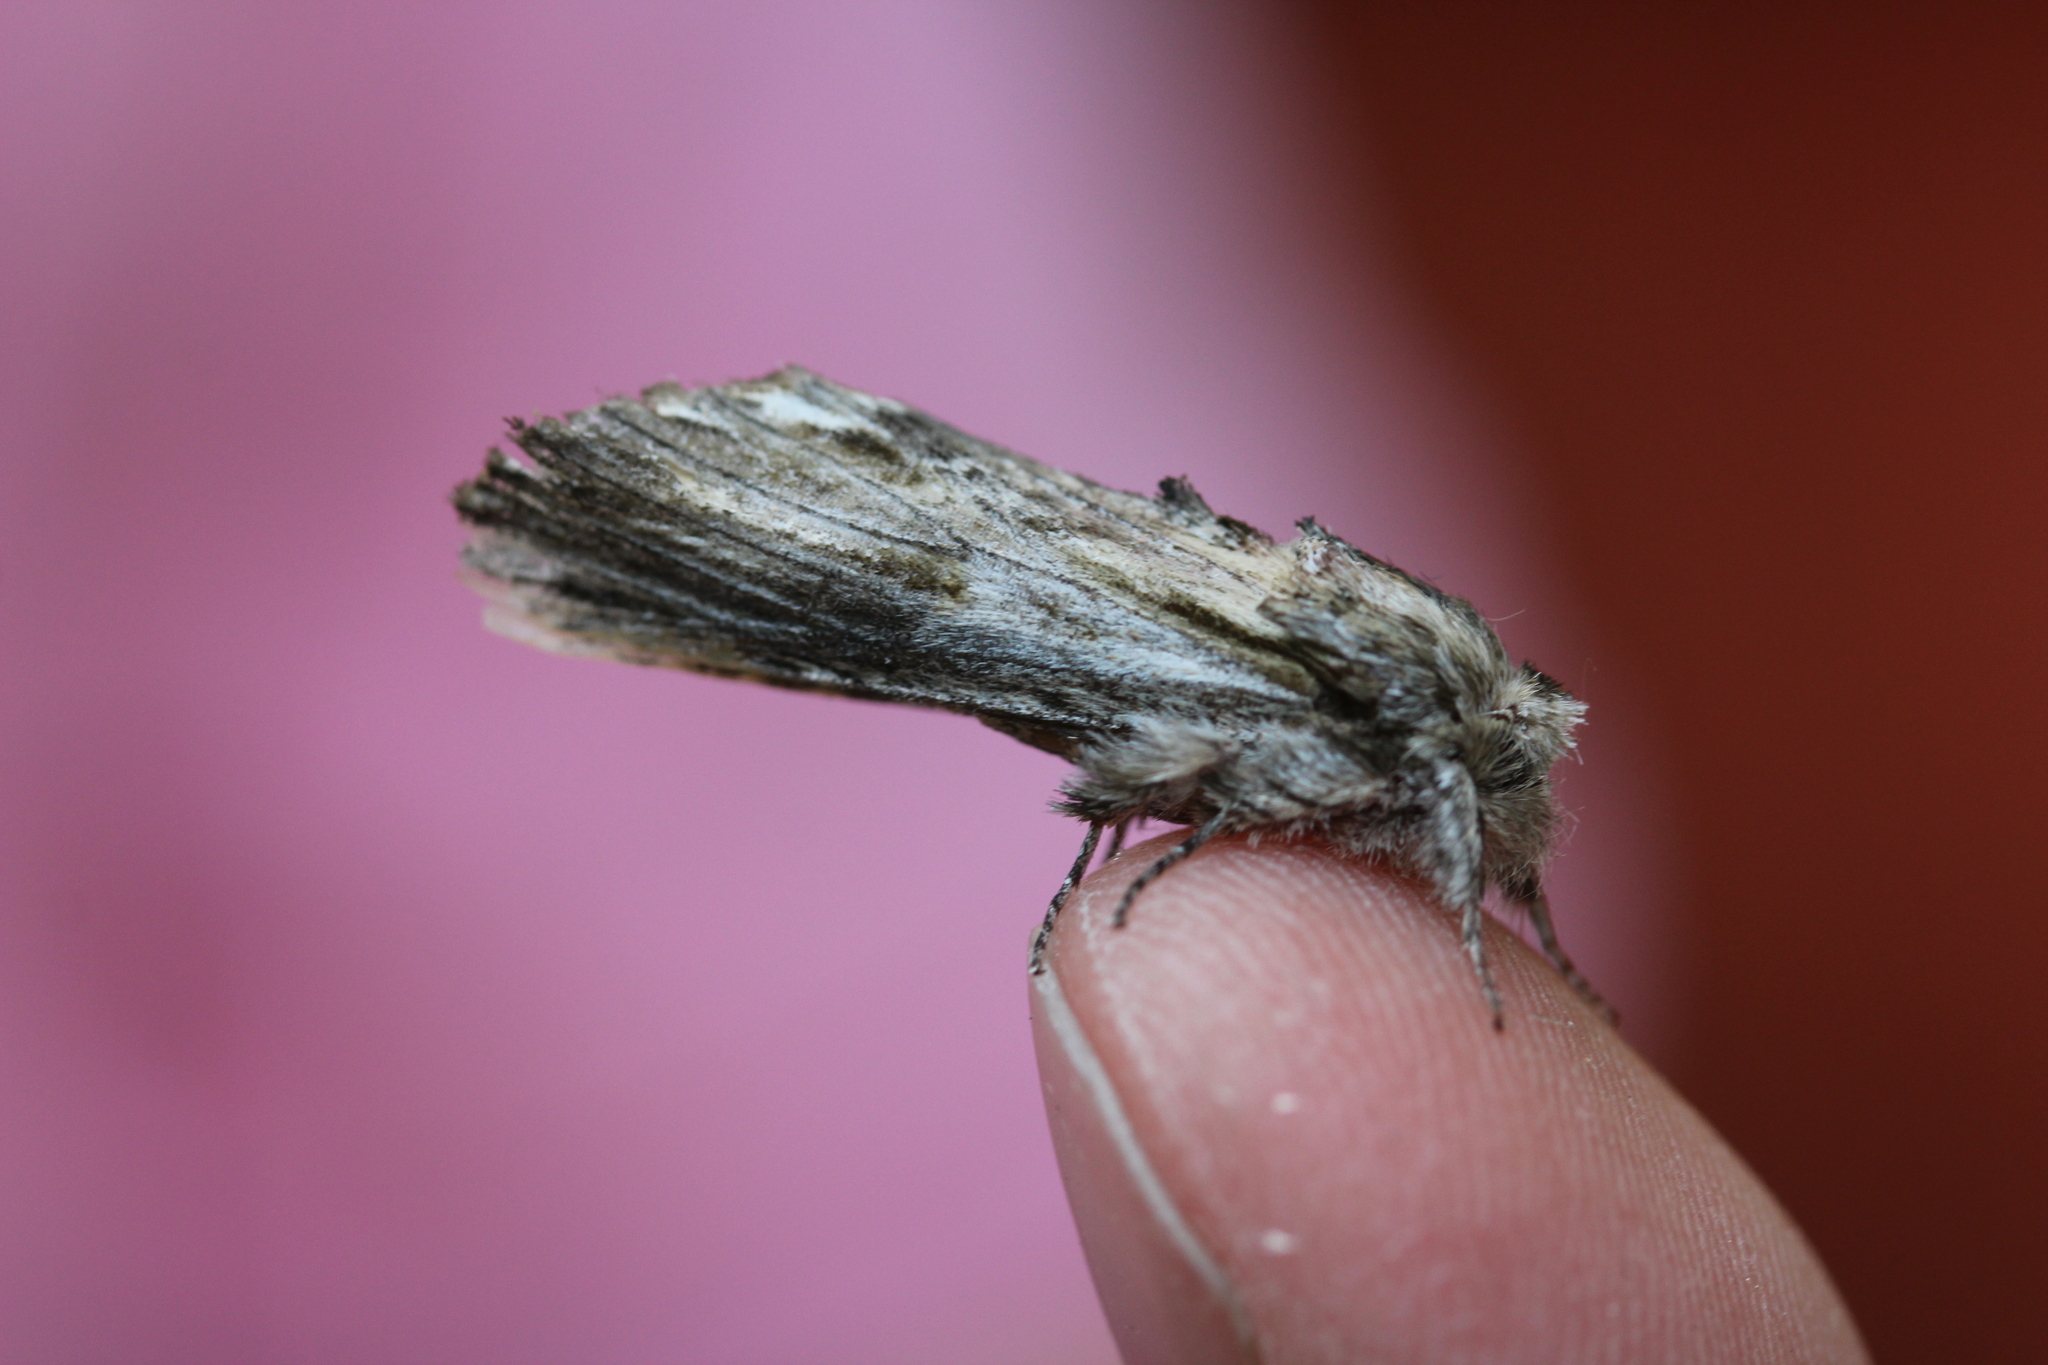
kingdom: Animalia
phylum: Arthropoda
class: Insecta
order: Lepidoptera
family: Notodontidae
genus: Oligocentria
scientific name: Oligocentria Ianassa lignicolor
